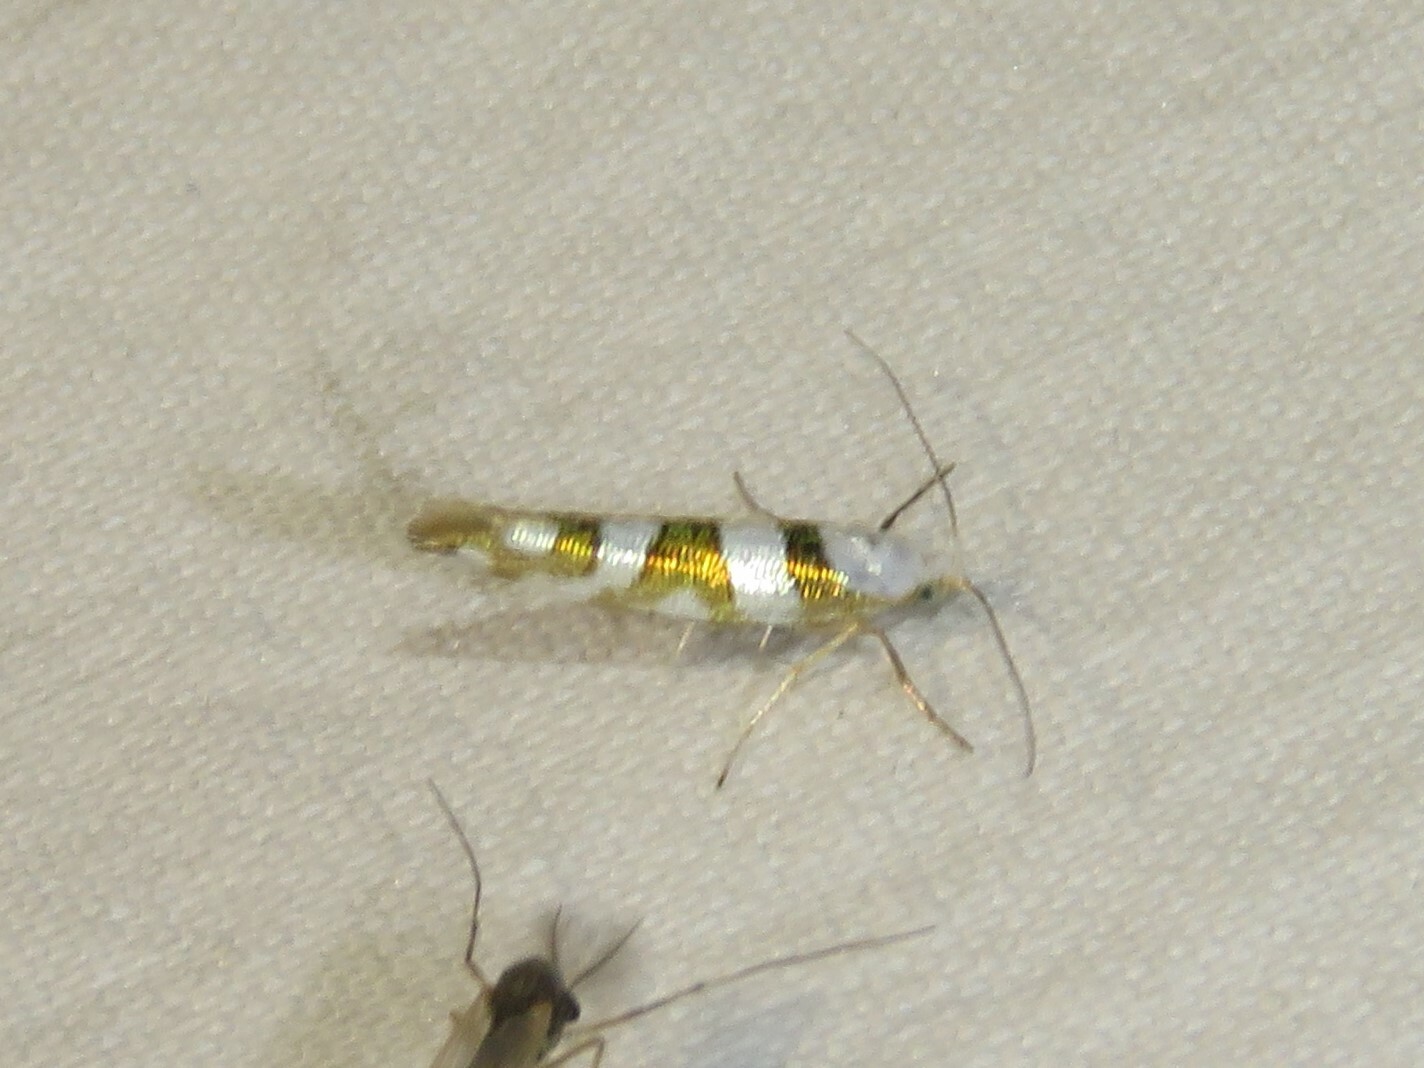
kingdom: Animalia
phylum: Arthropoda
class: Insecta
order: Lepidoptera
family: Argyresthiidae
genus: Argyresthia
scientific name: Argyresthia calliphanes
